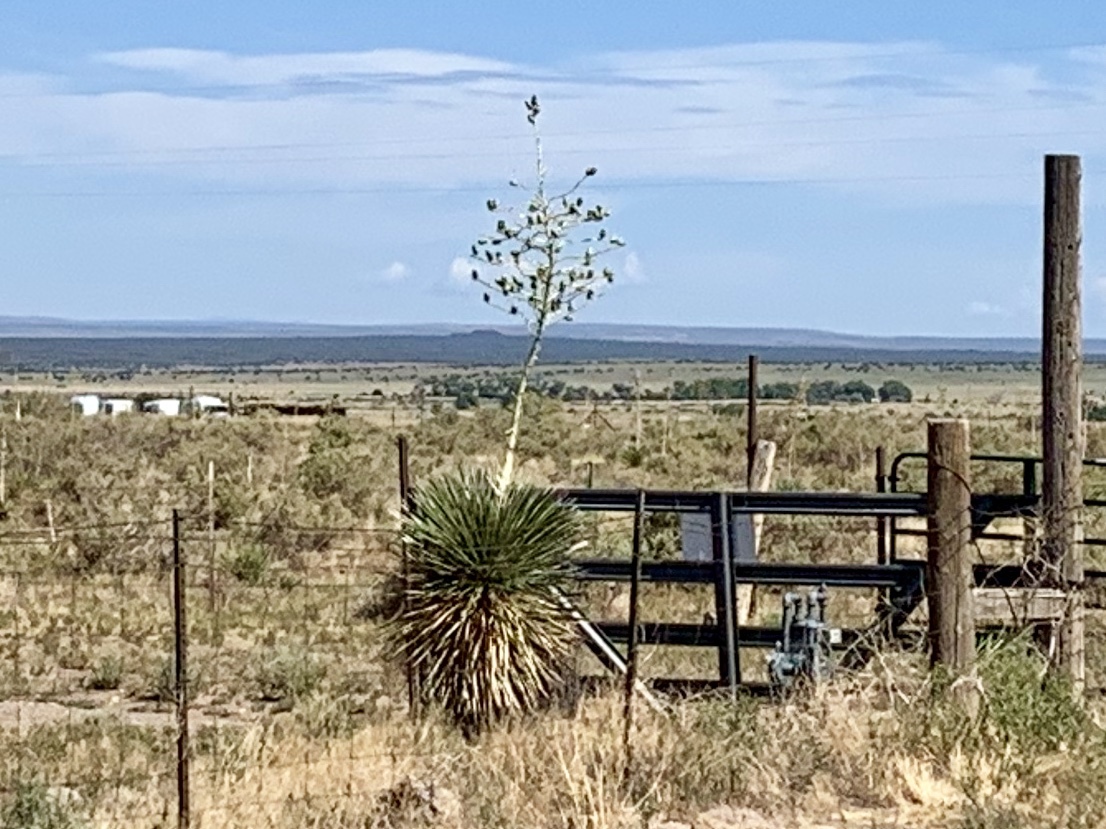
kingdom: Plantae
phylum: Tracheophyta
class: Liliopsida
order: Asparagales
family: Asparagaceae
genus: Yucca
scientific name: Yucca elata
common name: Palmella
